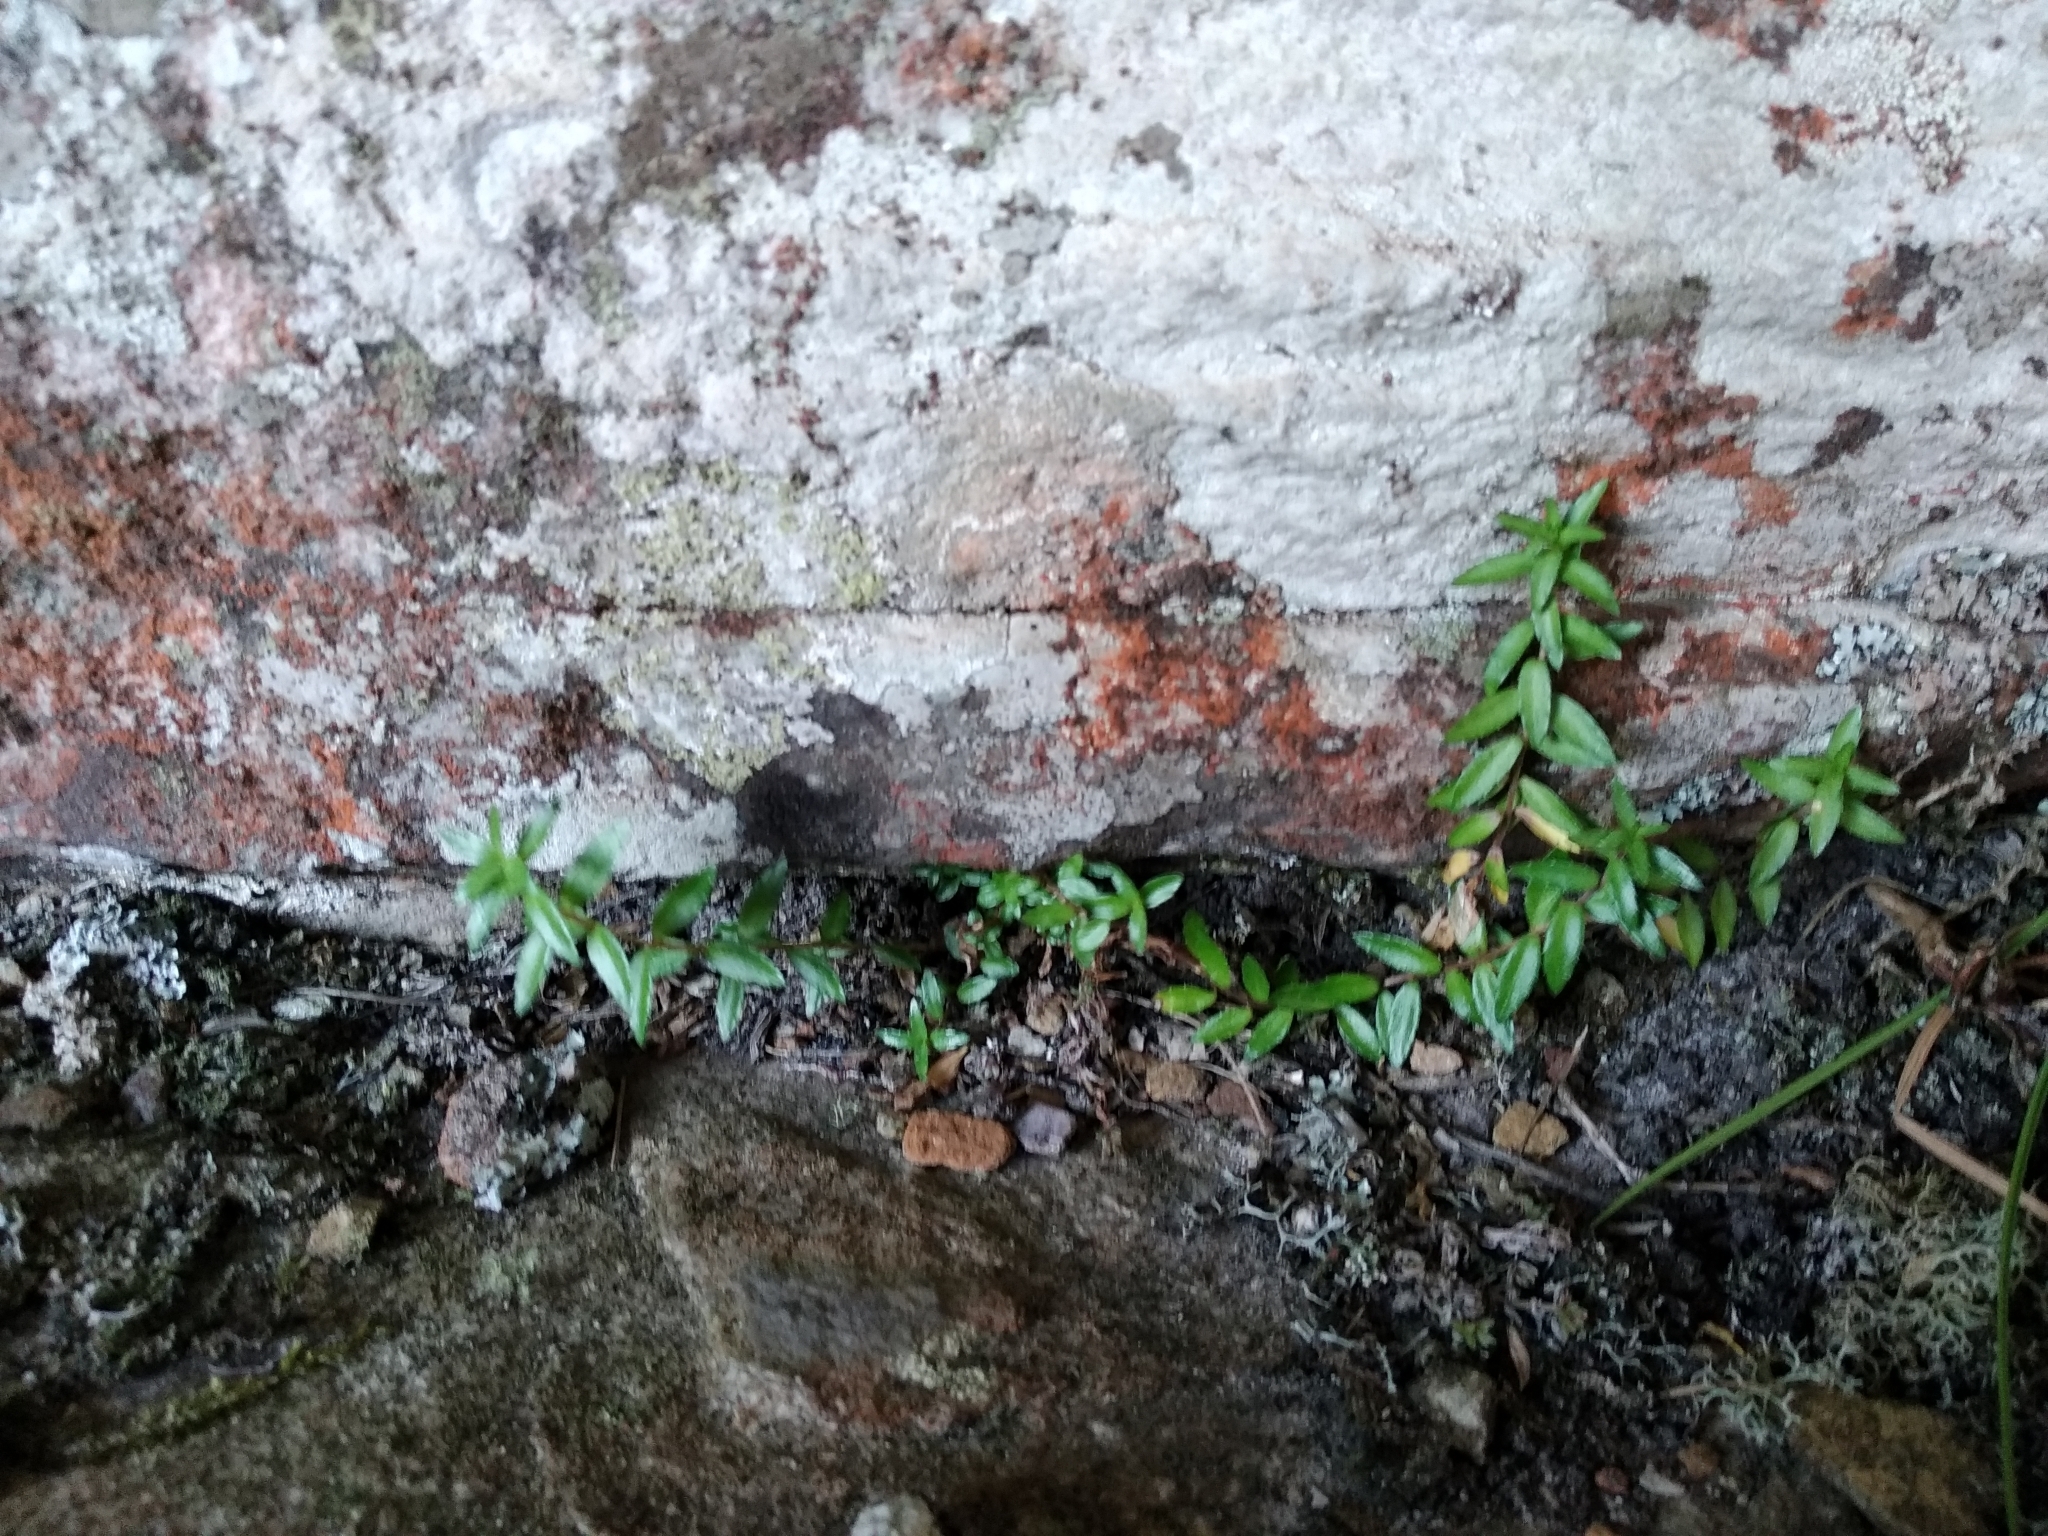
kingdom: Plantae
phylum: Tracheophyta
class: Magnoliopsida
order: Asterales
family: Campanulaceae
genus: Prismatocarpus
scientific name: Prismatocarpus nitidus
